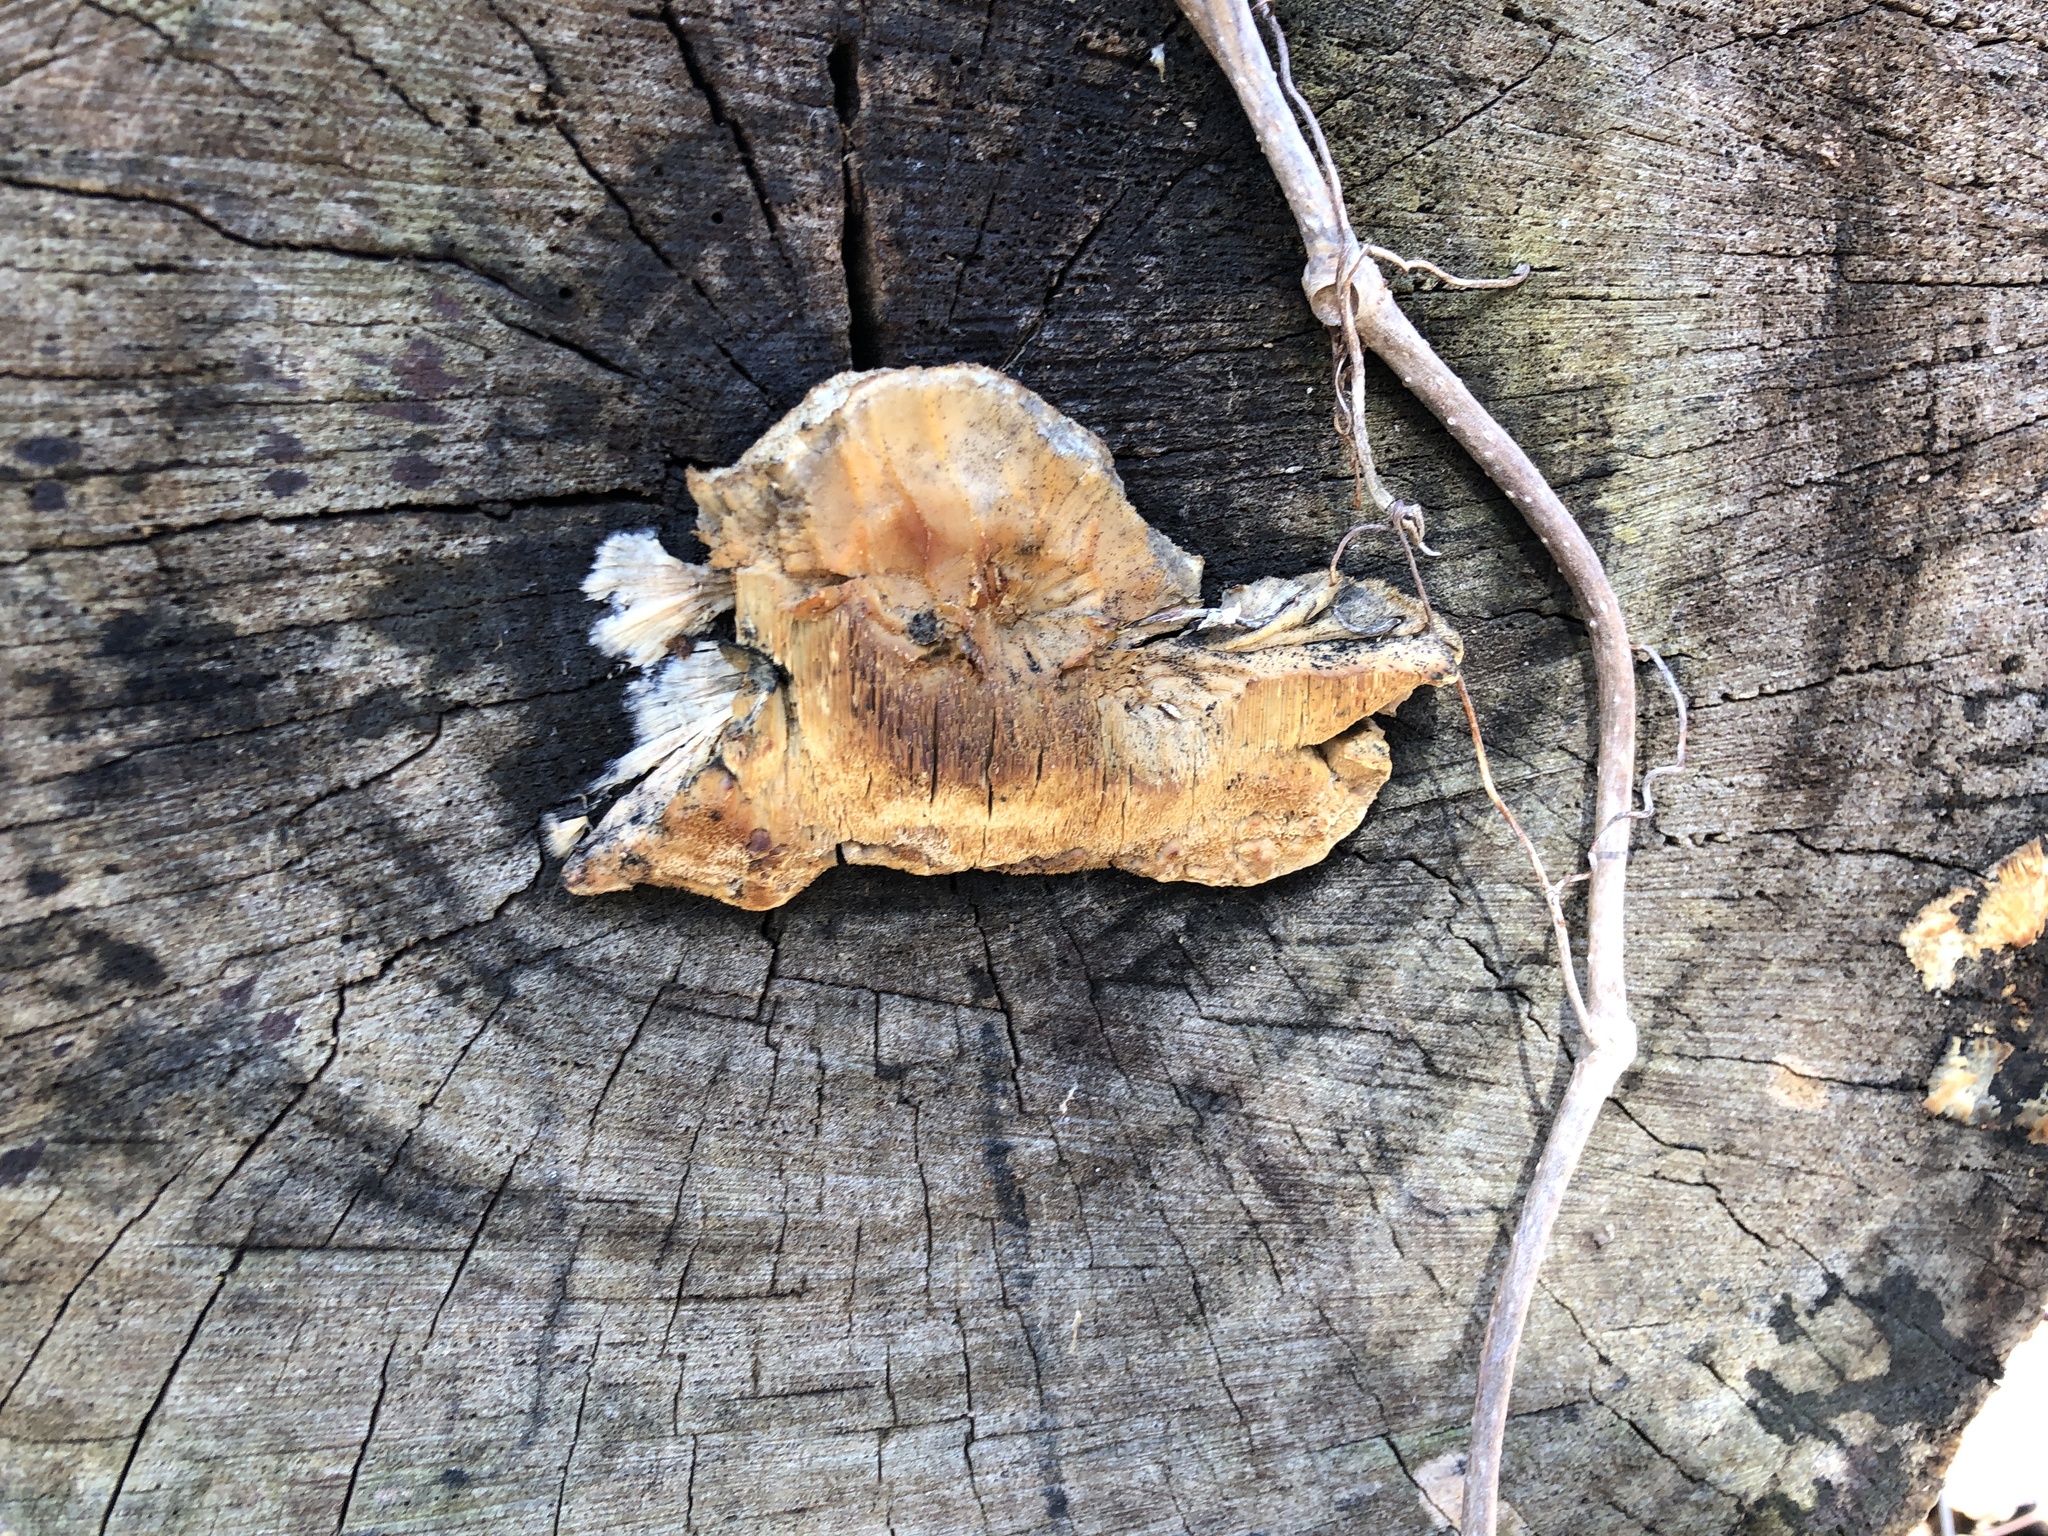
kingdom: Fungi
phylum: Basidiomycota
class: Agaricomycetes
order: Polyporales
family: Irpicaceae
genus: Trametopsis
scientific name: Trametopsis cervina
